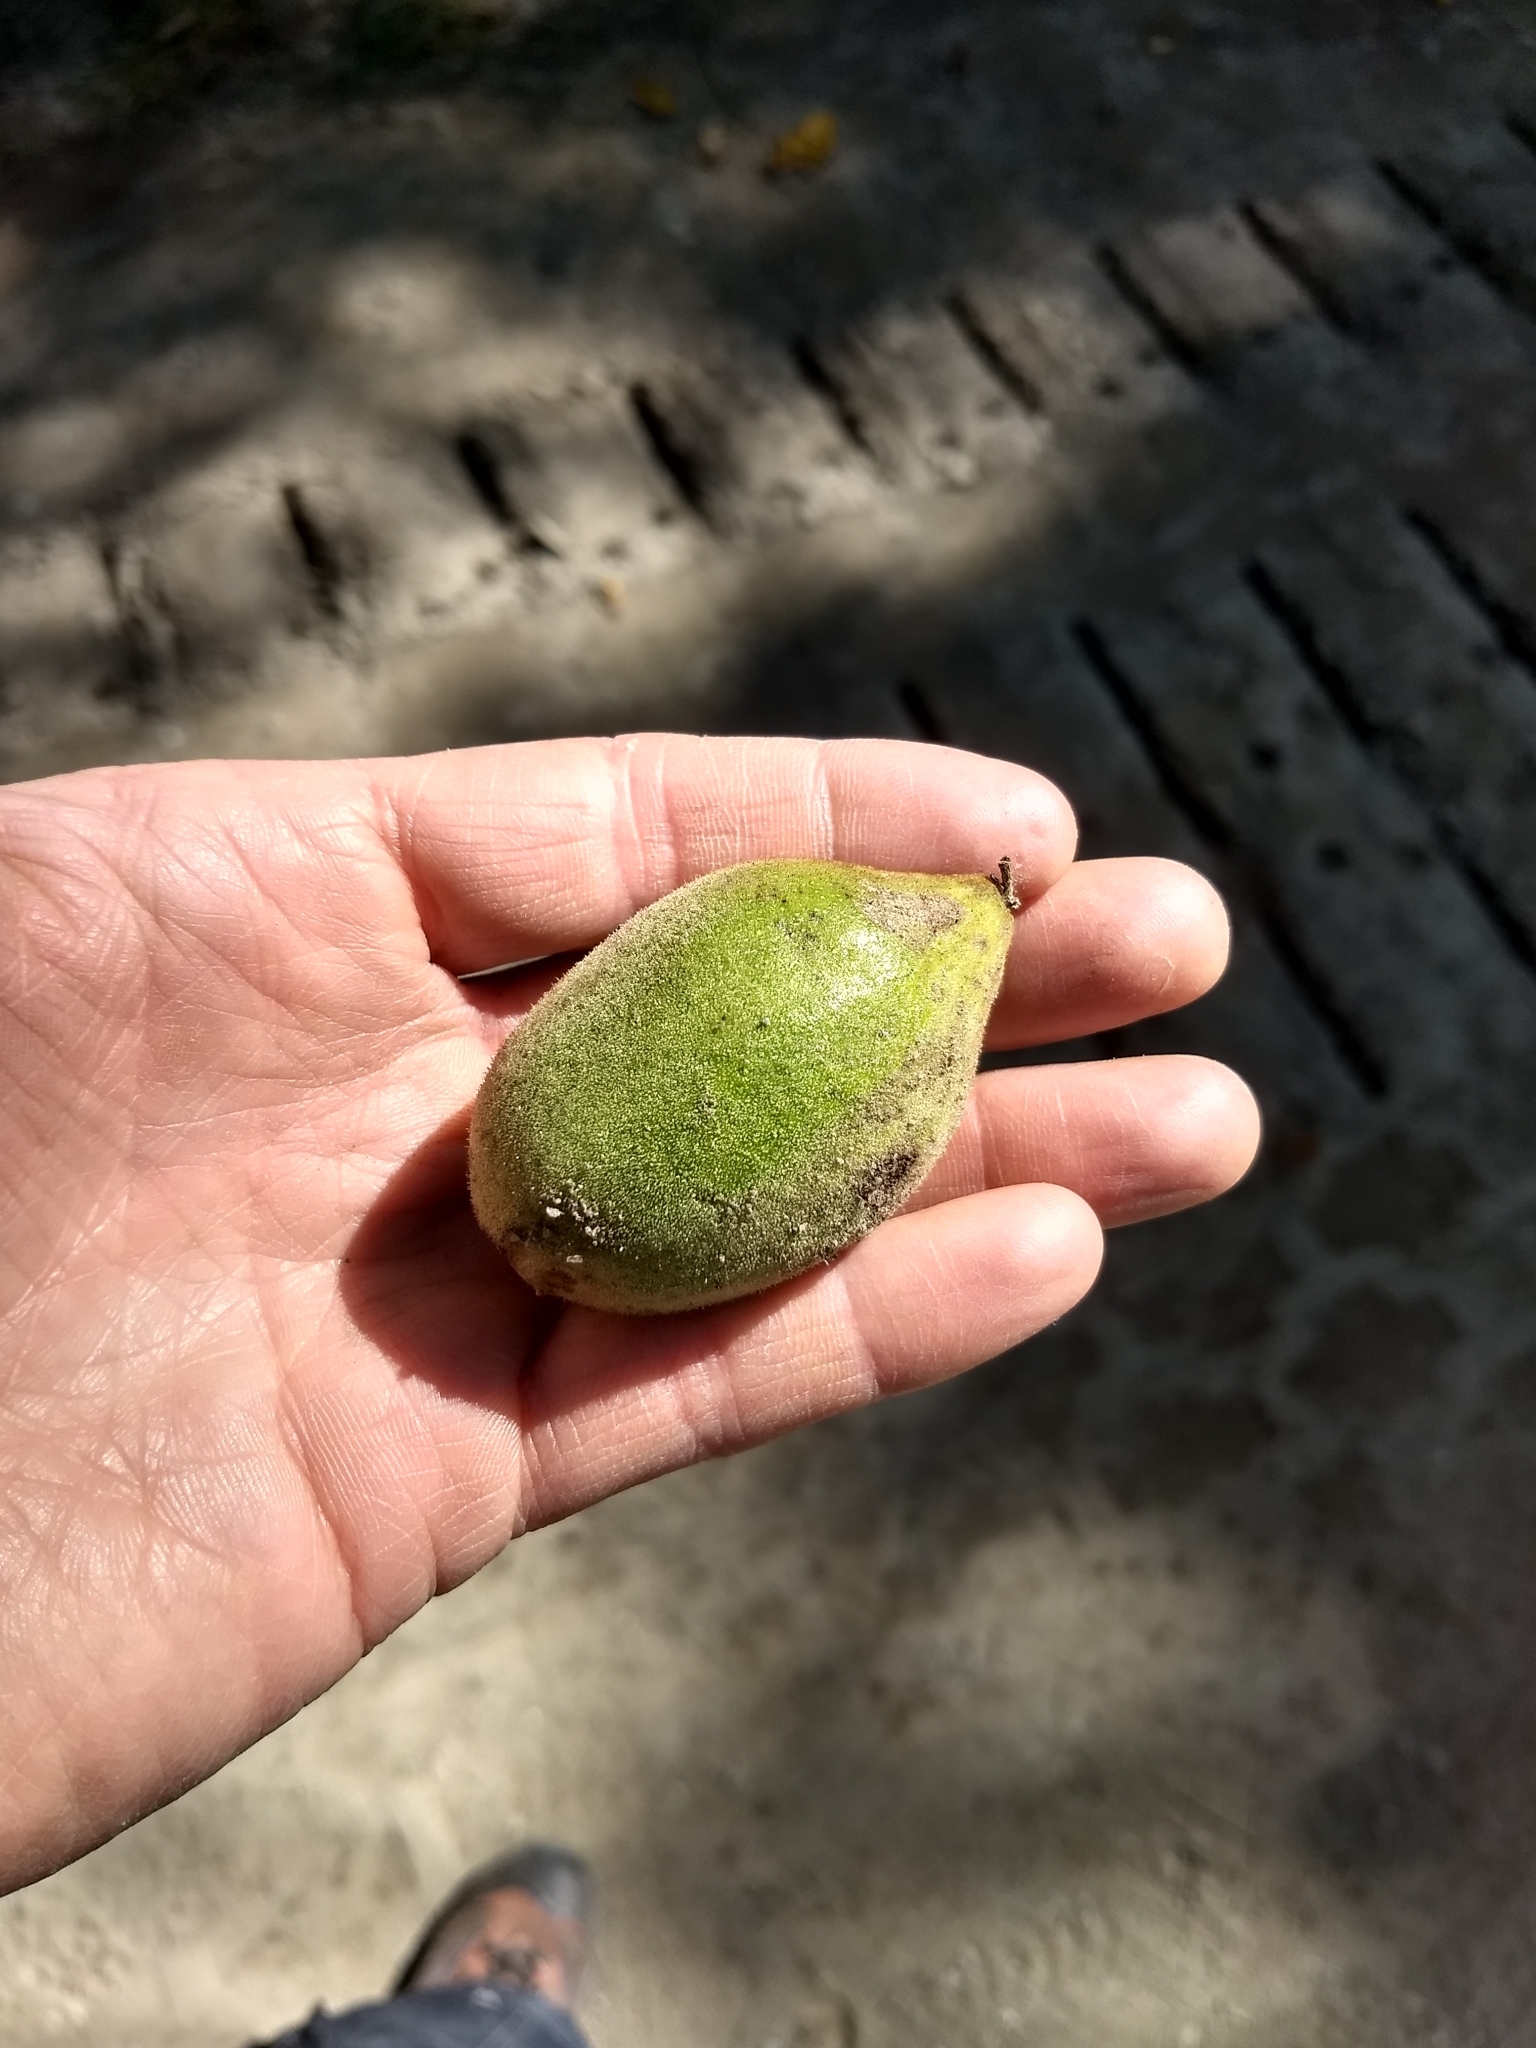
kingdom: Plantae
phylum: Tracheophyta
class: Magnoliopsida
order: Fagales
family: Juglandaceae
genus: Juglans
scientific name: Juglans cinerea
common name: Butternut
